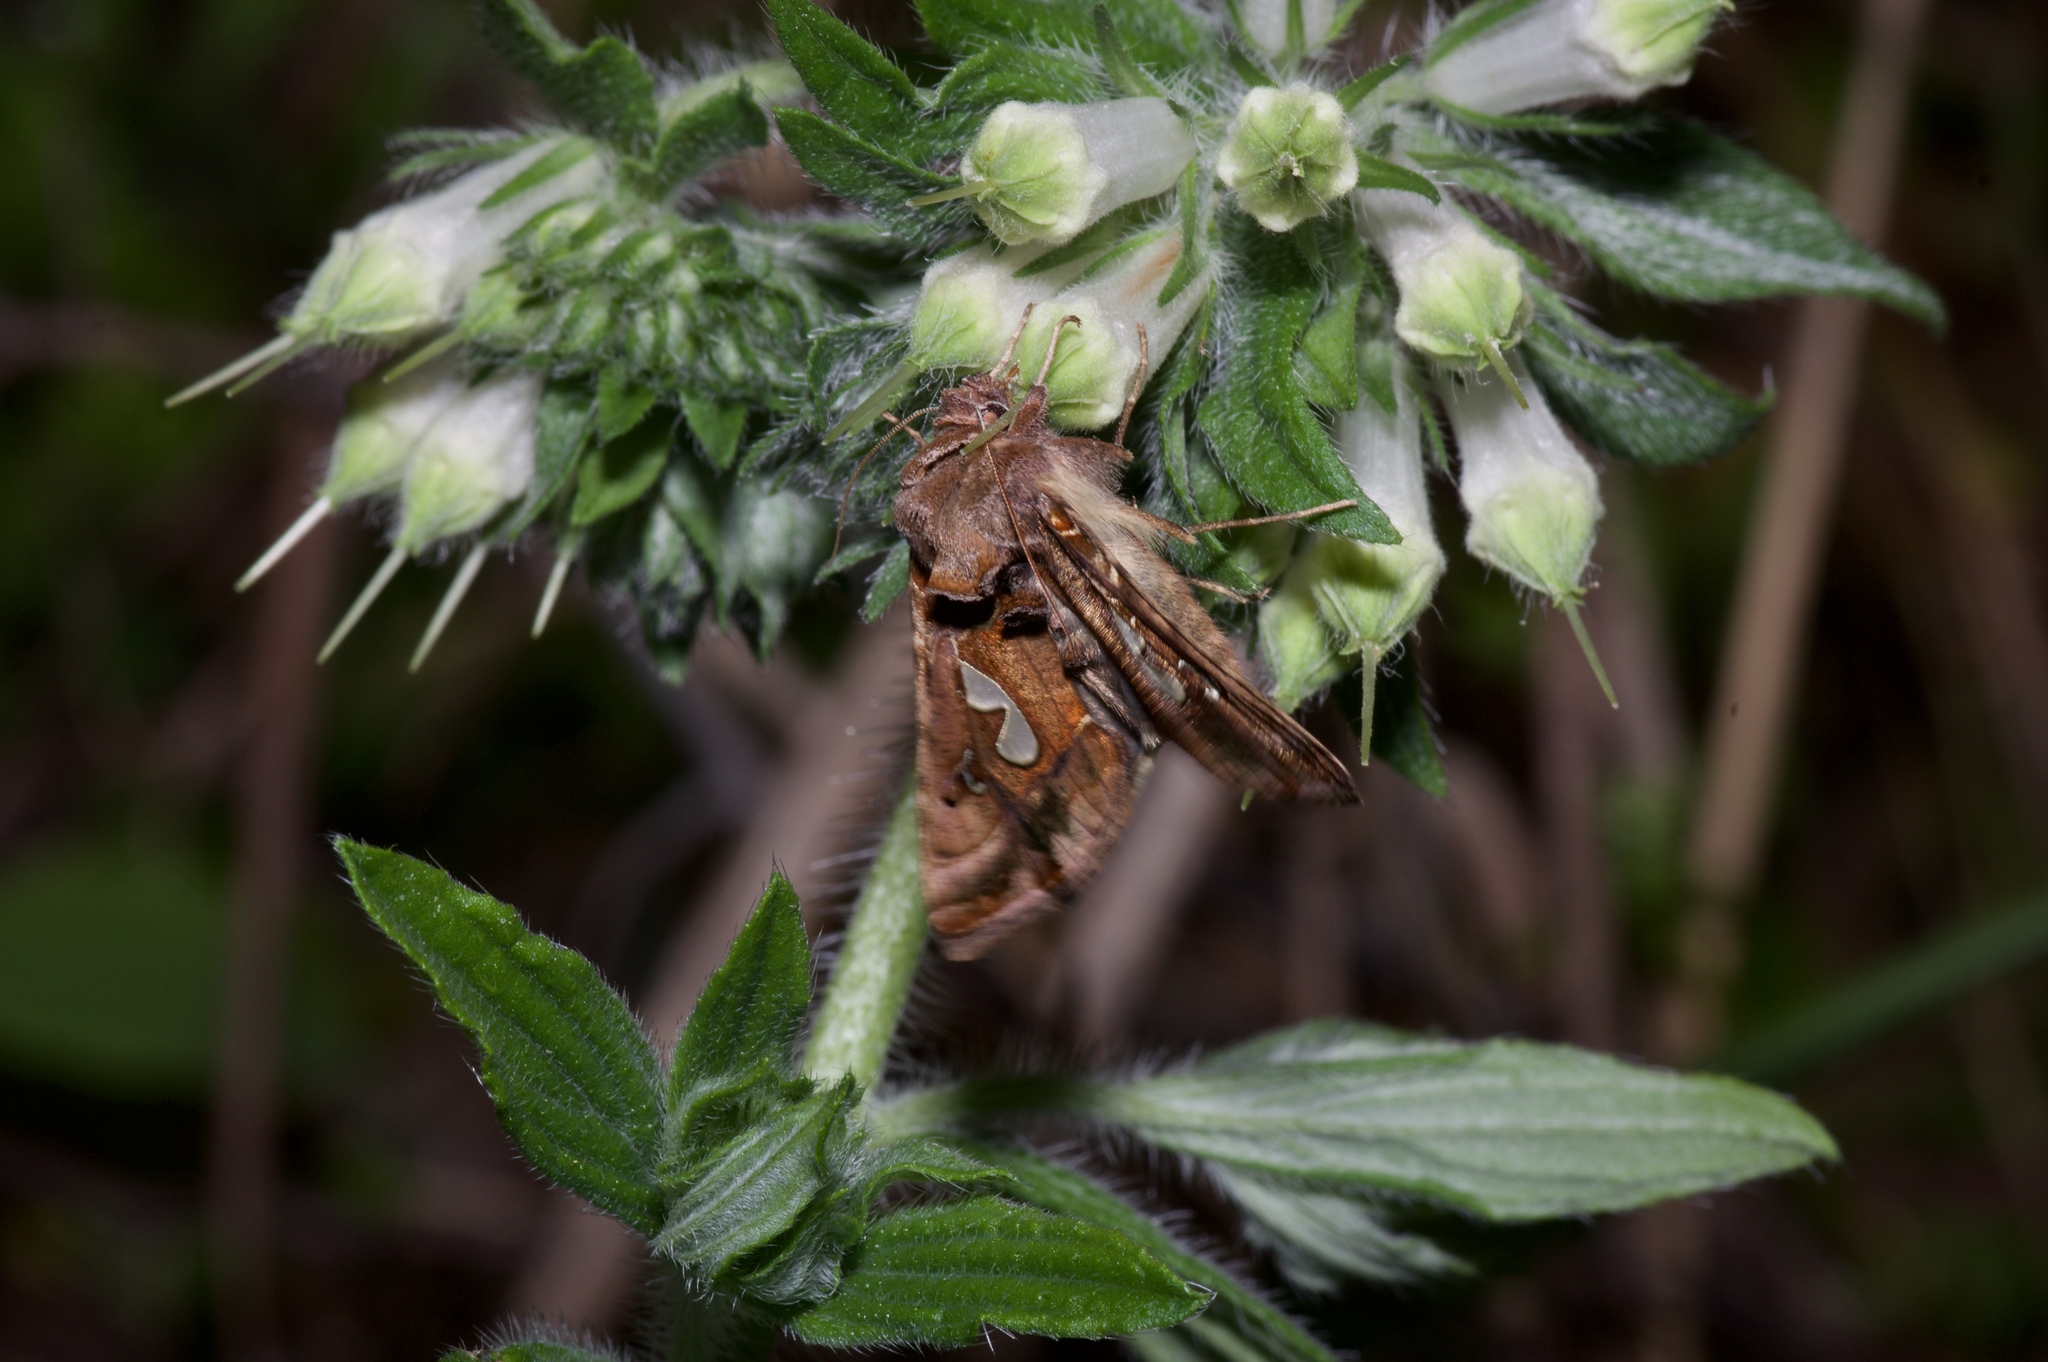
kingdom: Animalia
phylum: Arthropoda
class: Insecta
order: Lepidoptera
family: Noctuidae
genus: Megalographa
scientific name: Megalographa biloba
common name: Cutworm
